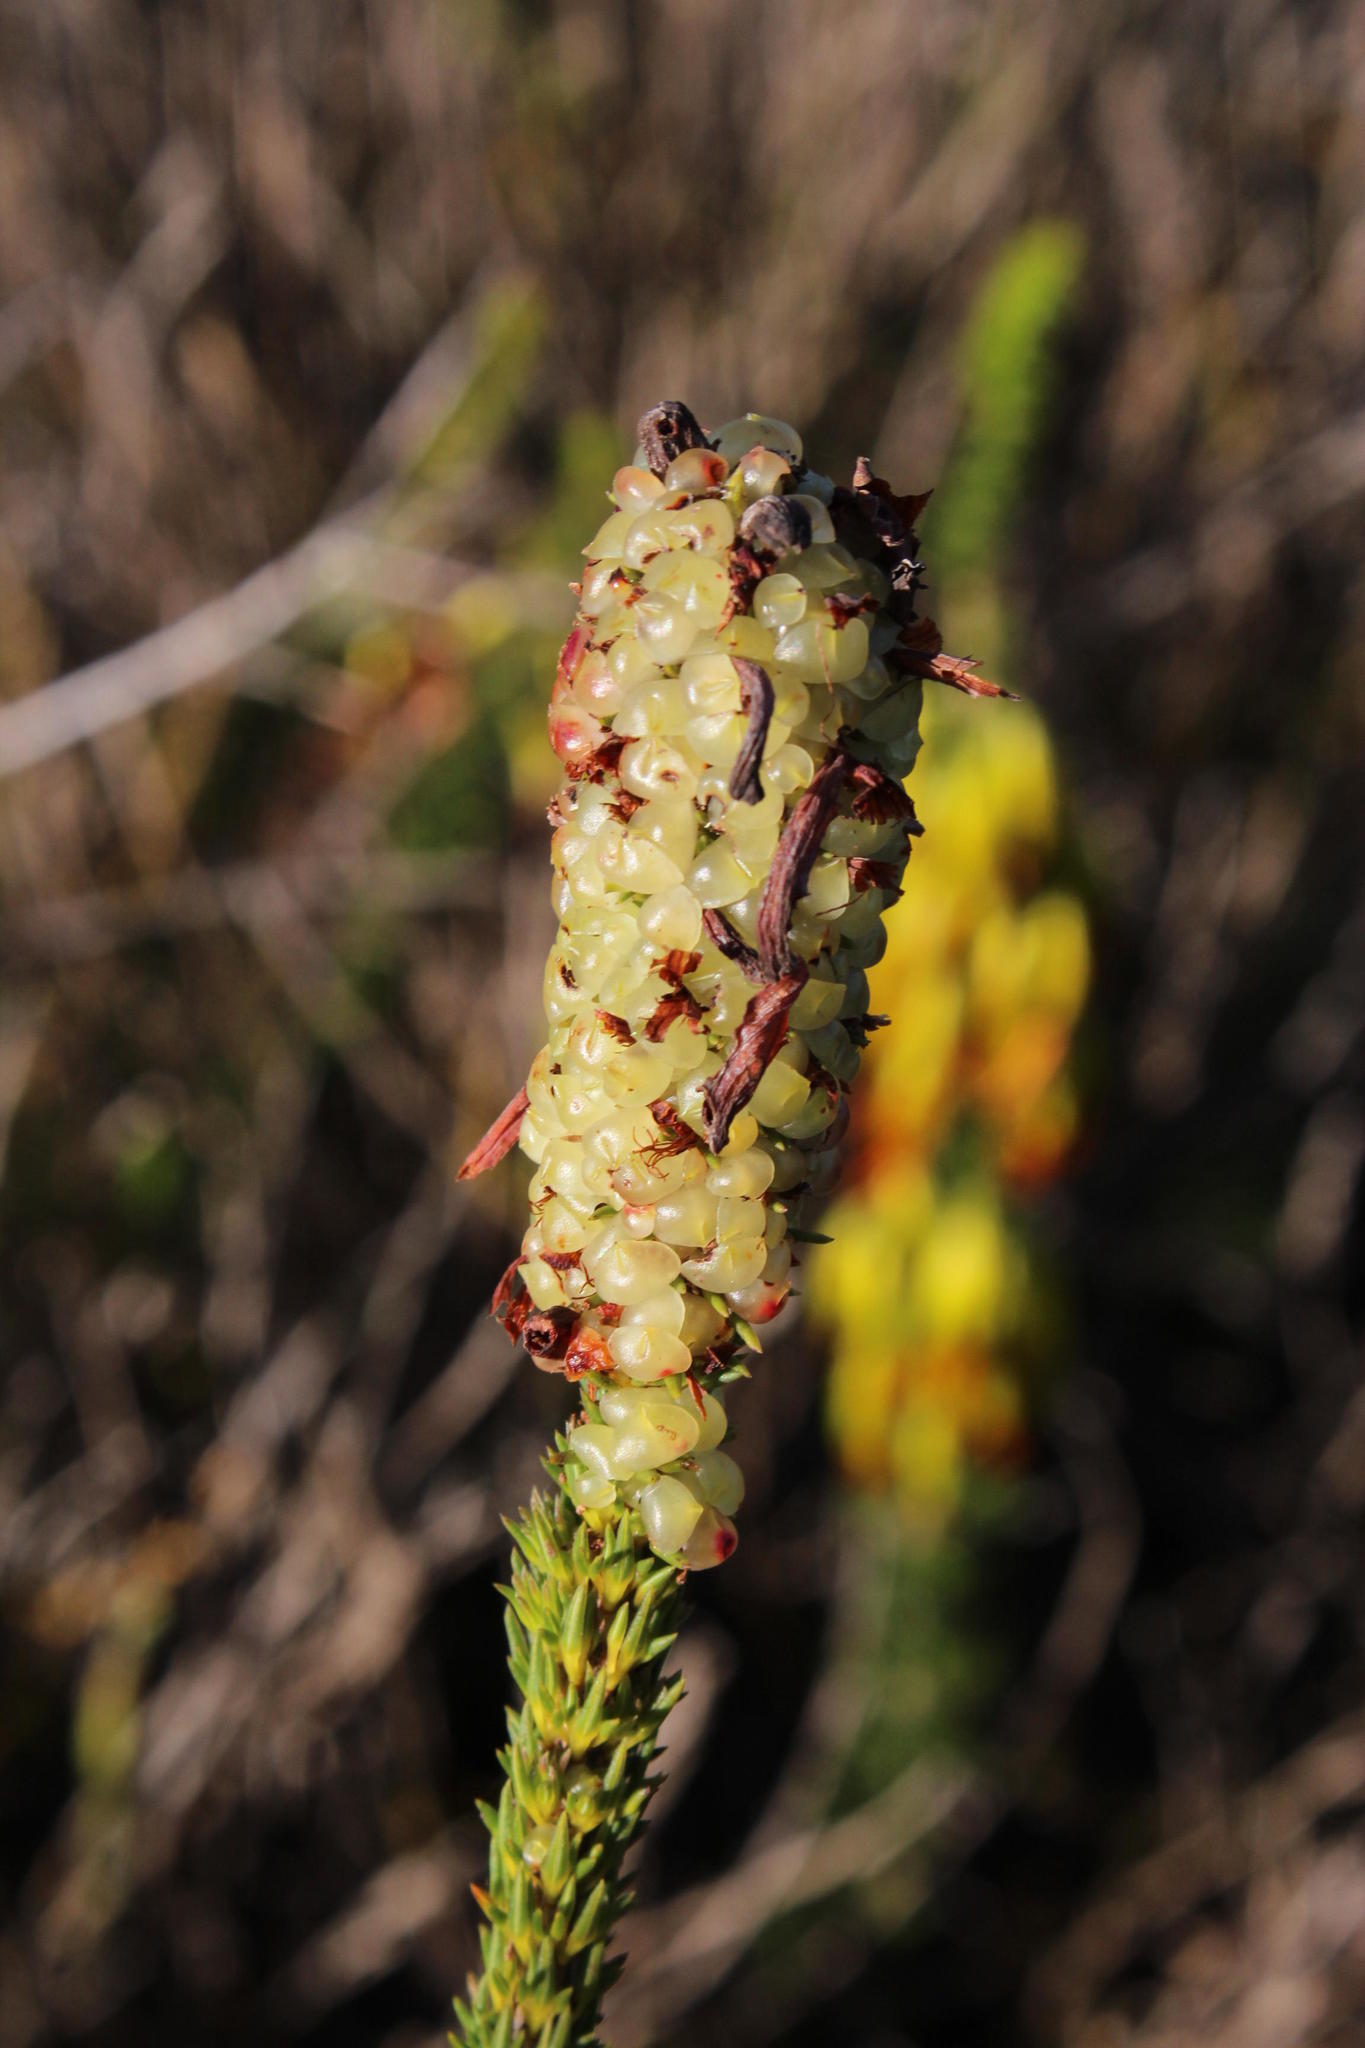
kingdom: Plantae
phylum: Tracheophyta
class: Magnoliopsida
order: Ericales
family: Ericaceae
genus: Erica
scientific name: Erica sessiliflora
